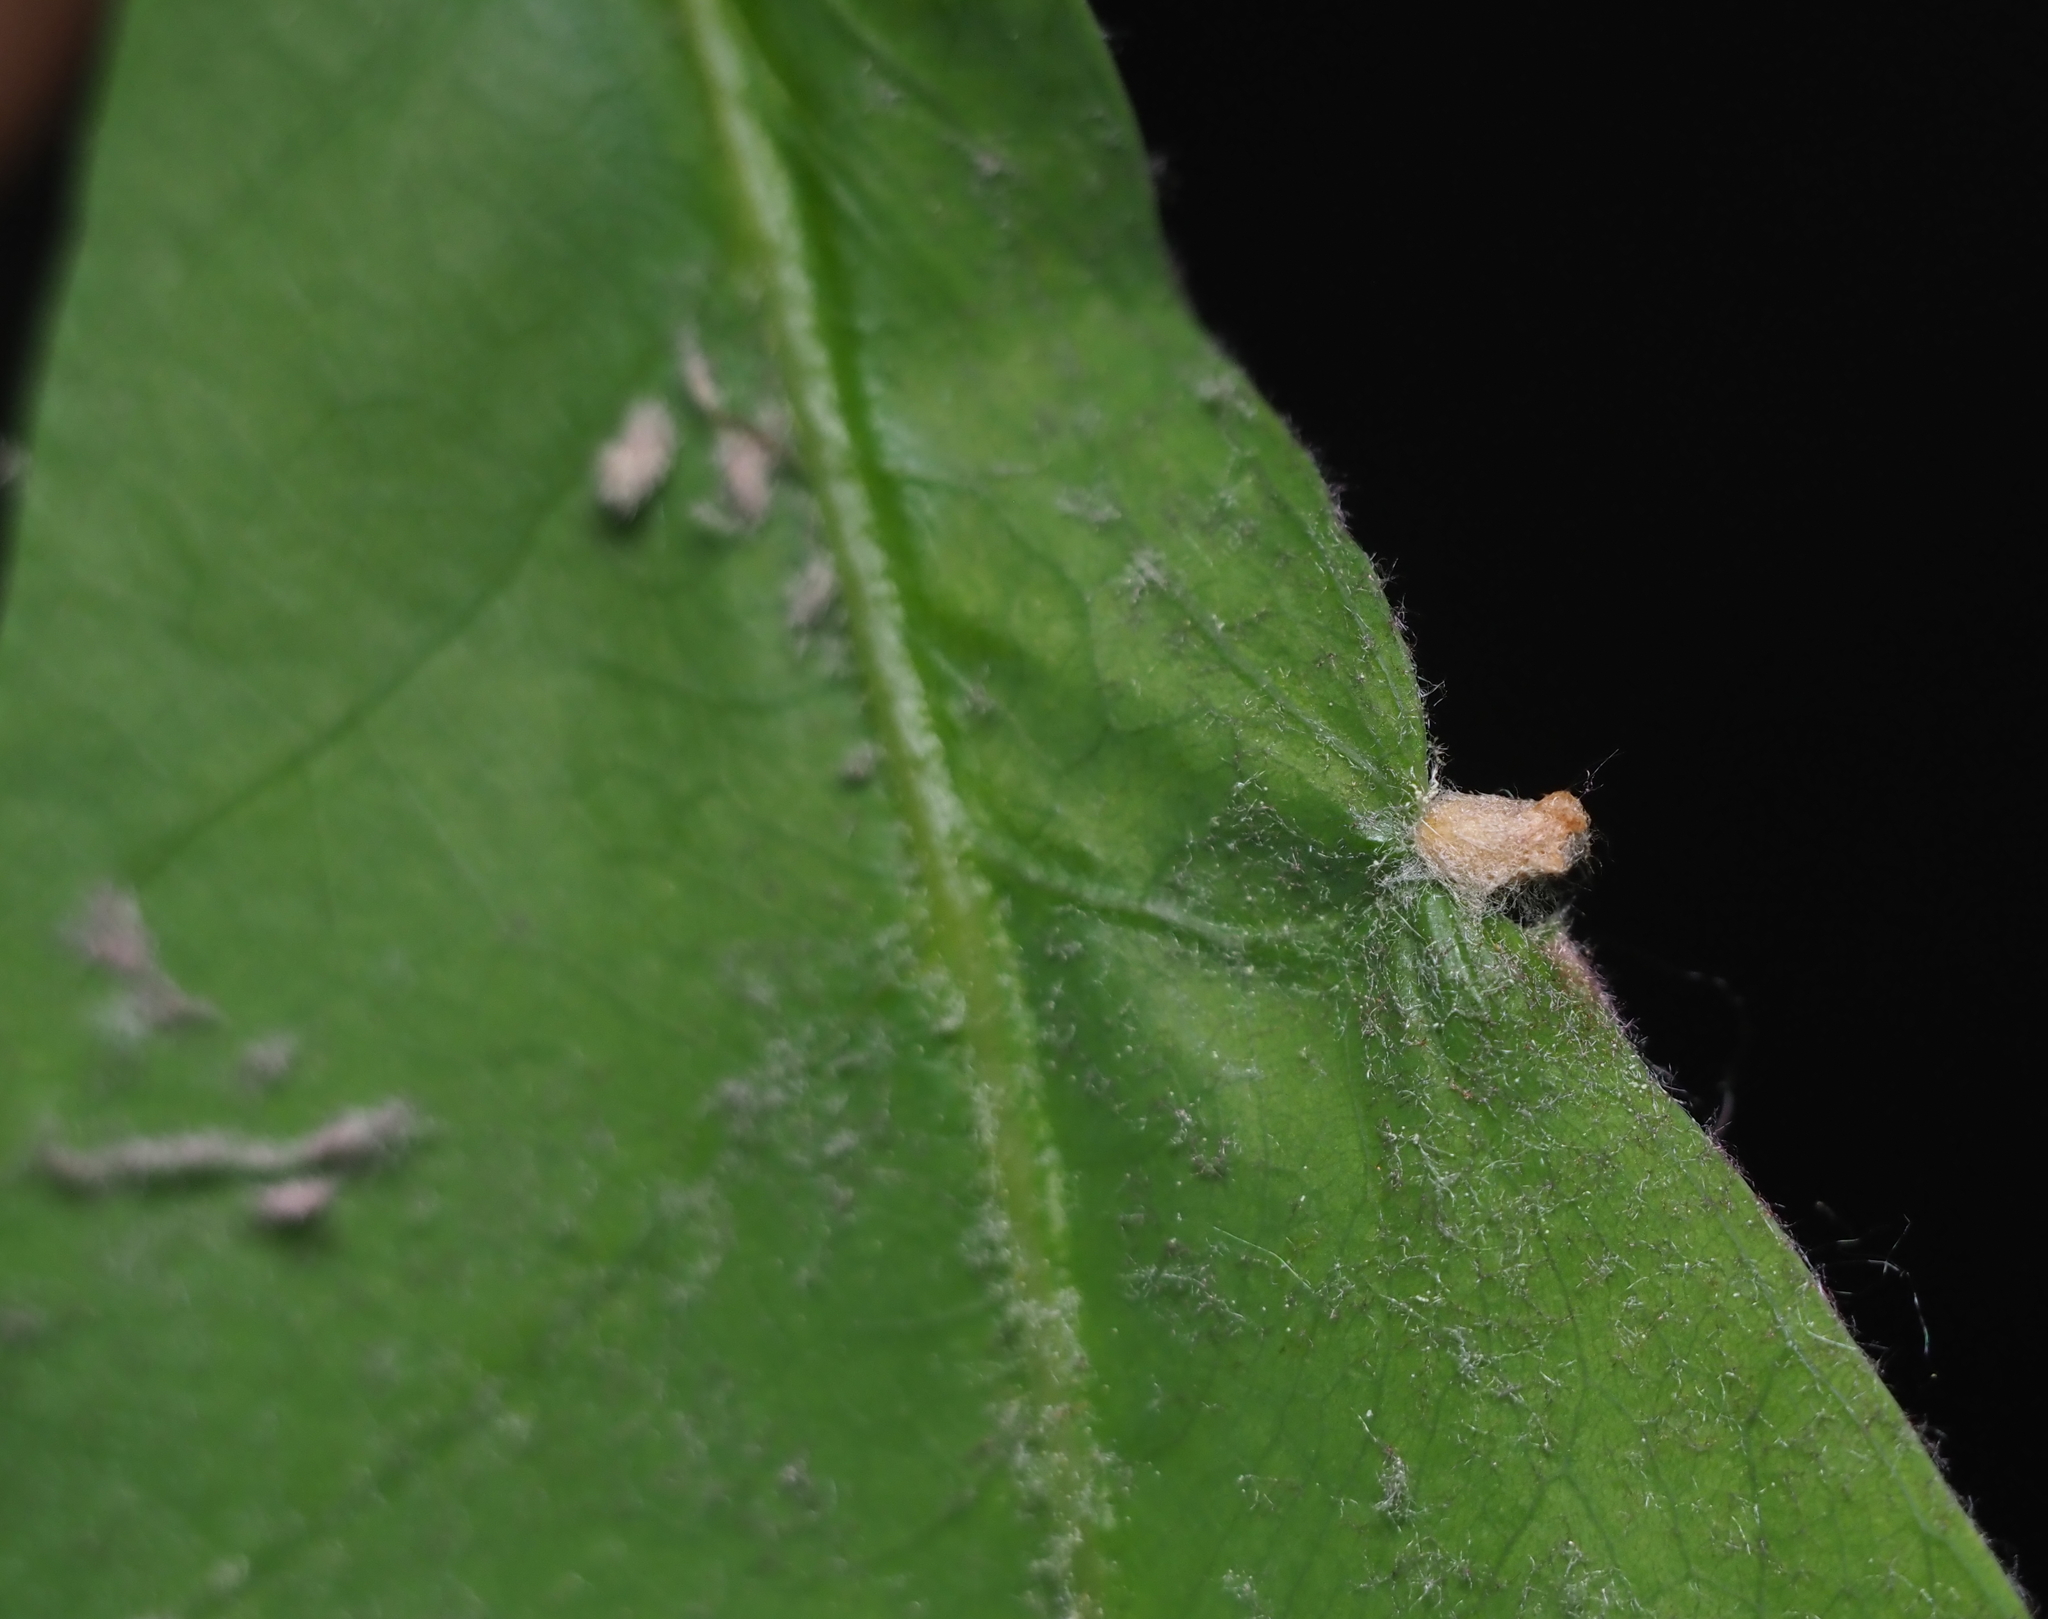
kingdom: Animalia
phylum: Arthropoda
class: Insecta
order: Hymenoptera
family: Cynipidae
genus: Neuroterus
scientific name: Neuroterus
